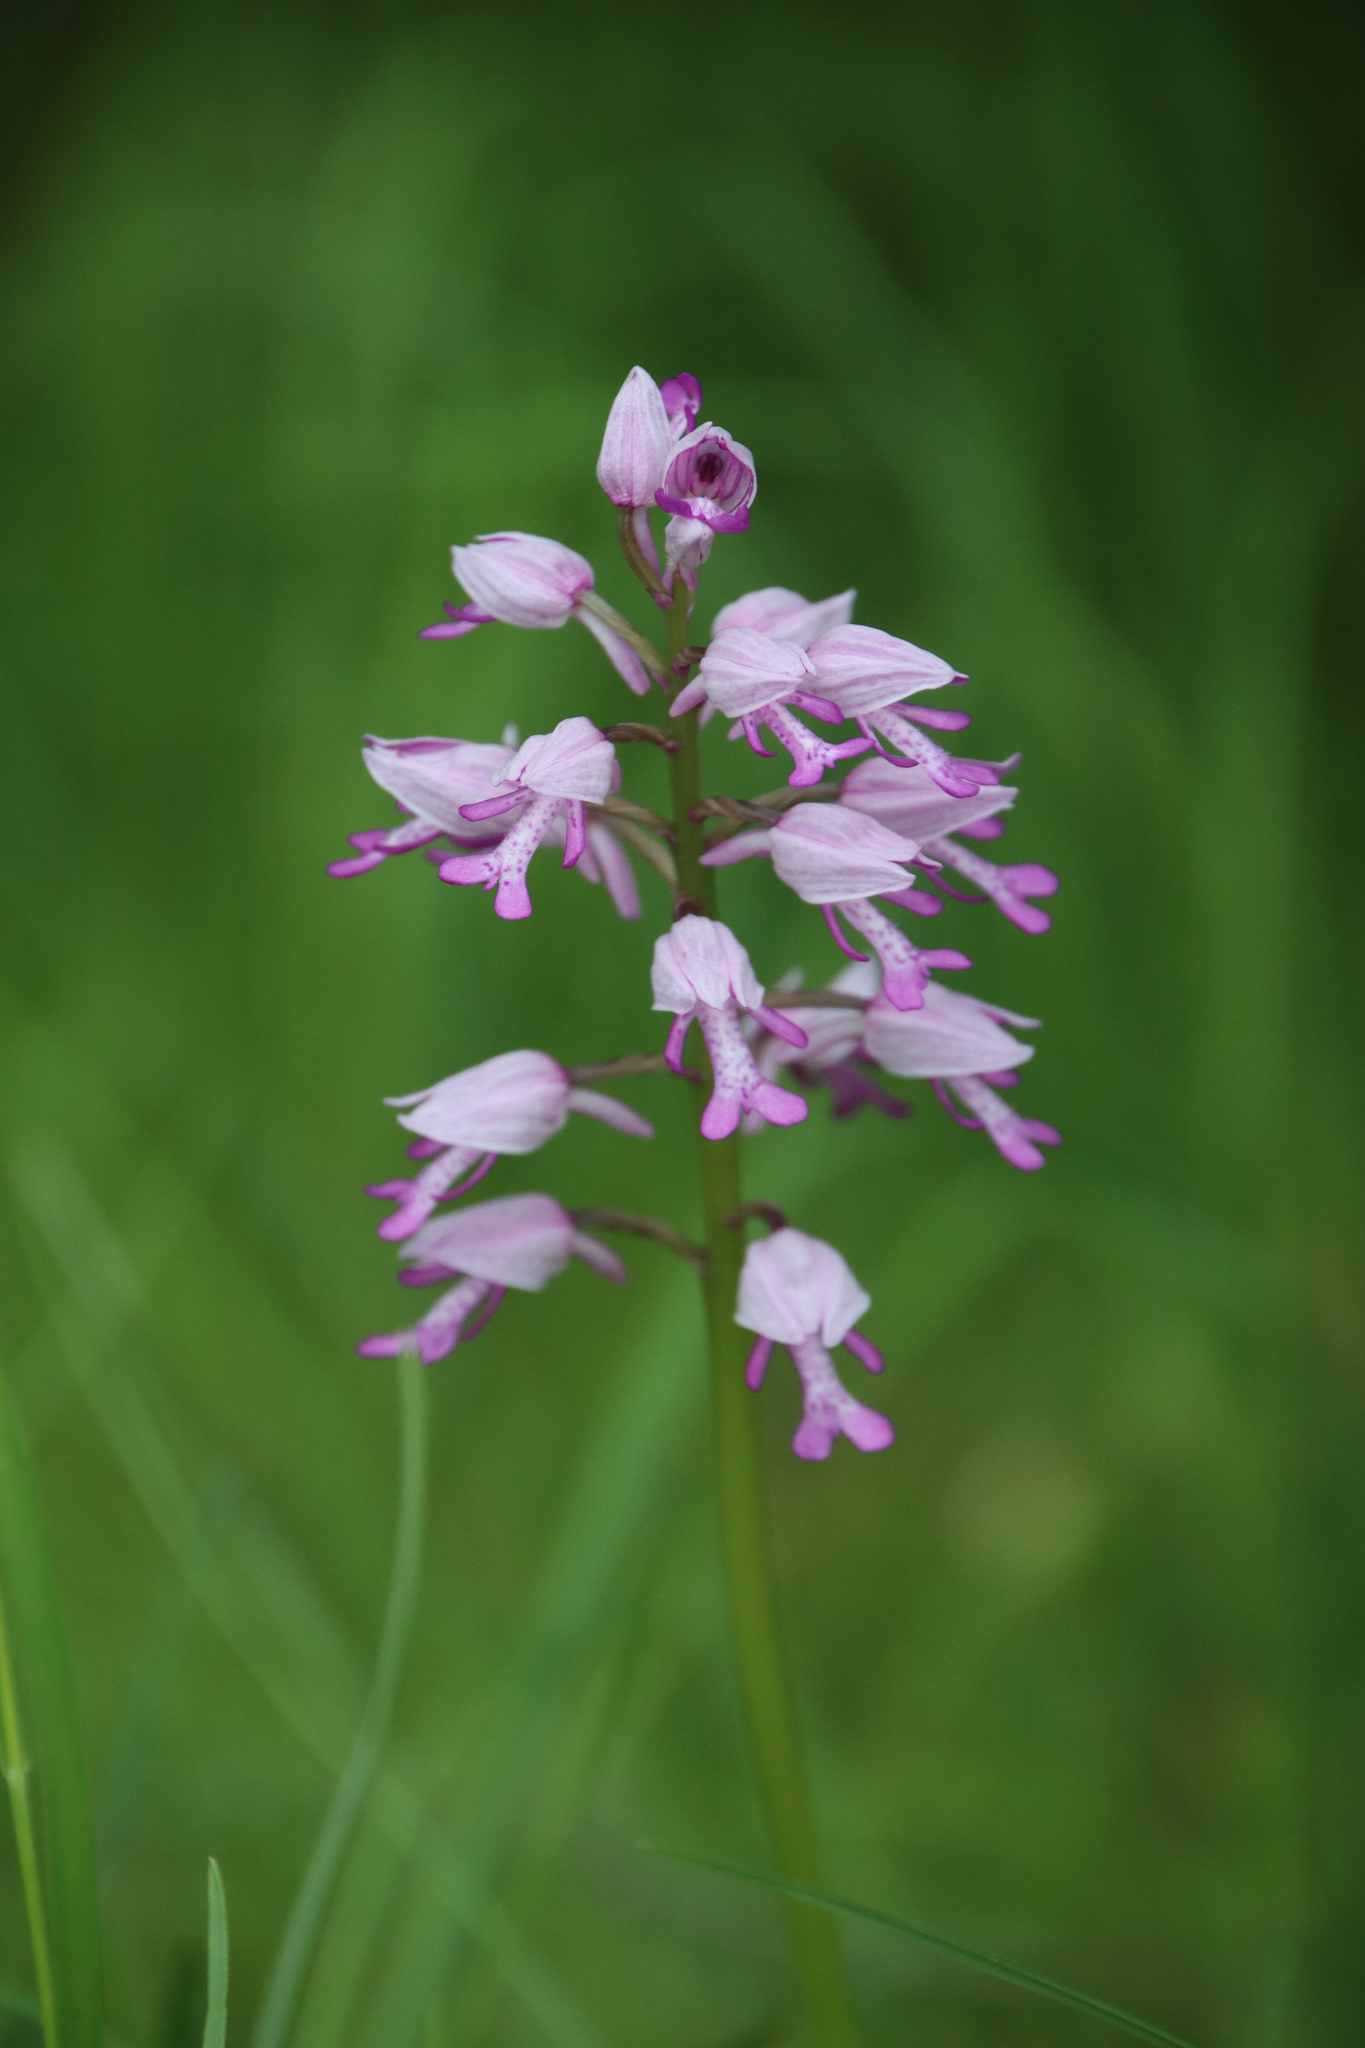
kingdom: Plantae
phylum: Tracheophyta
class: Liliopsida
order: Asparagales
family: Orchidaceae
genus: Orchis
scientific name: Orchis militaris
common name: Military orchid
